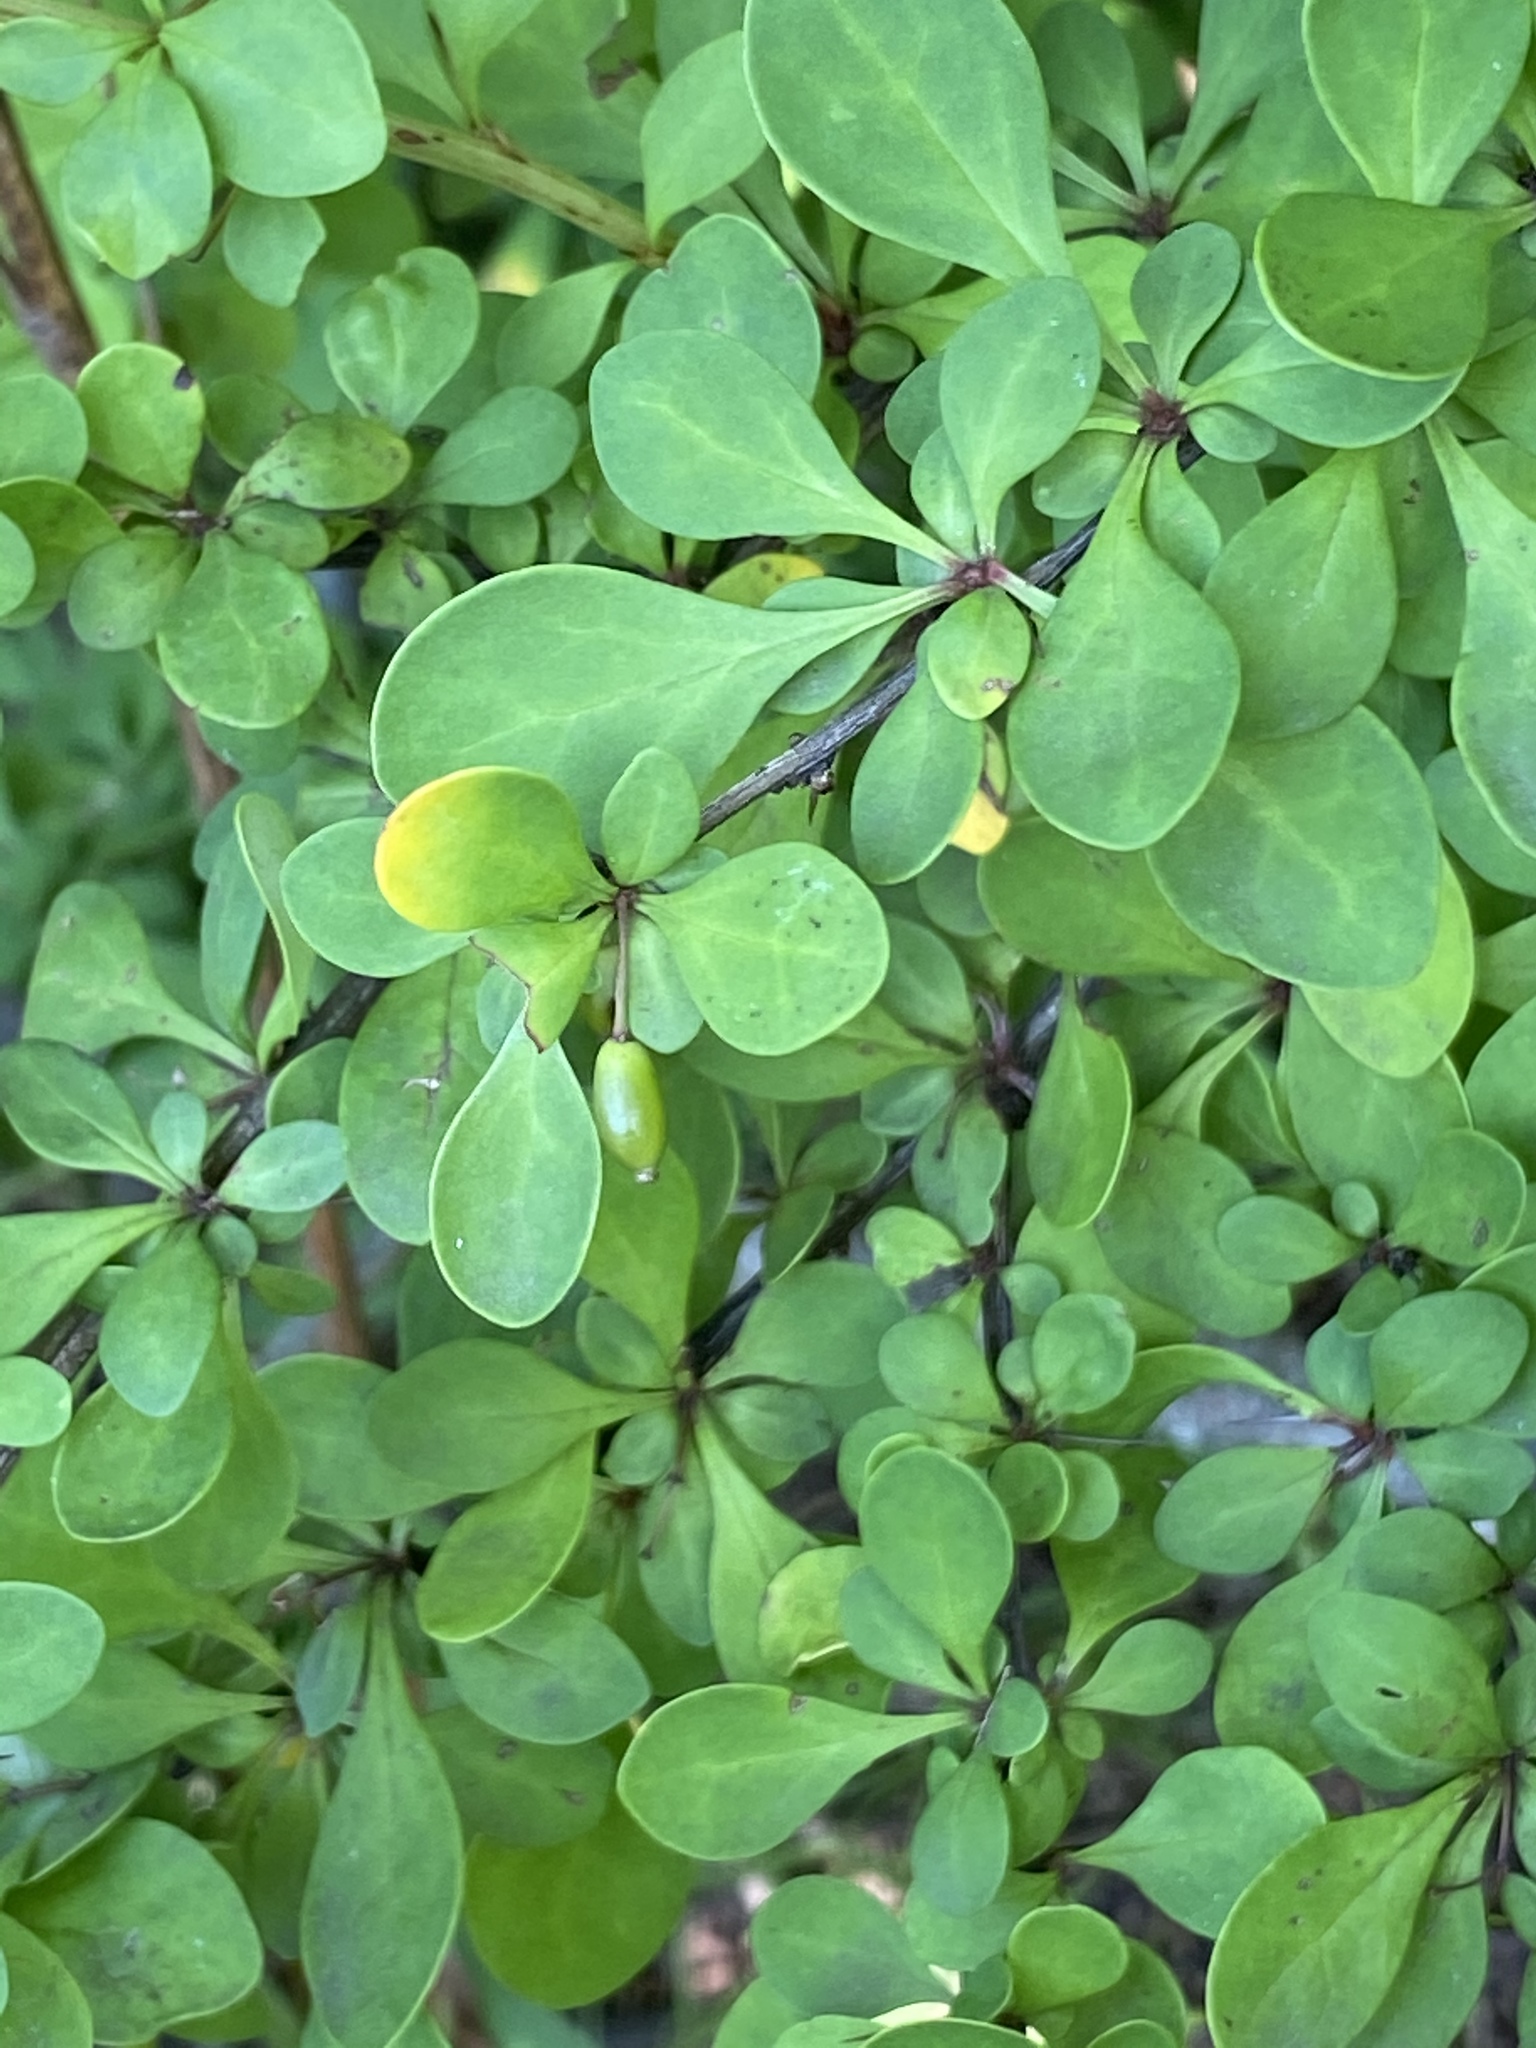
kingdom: Plantae
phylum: Tracheophyta
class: Magnoliopsida
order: Ranunculales
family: Berberidaceae
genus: Berberis
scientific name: Berberis thunbergii
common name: Japanese barberry
